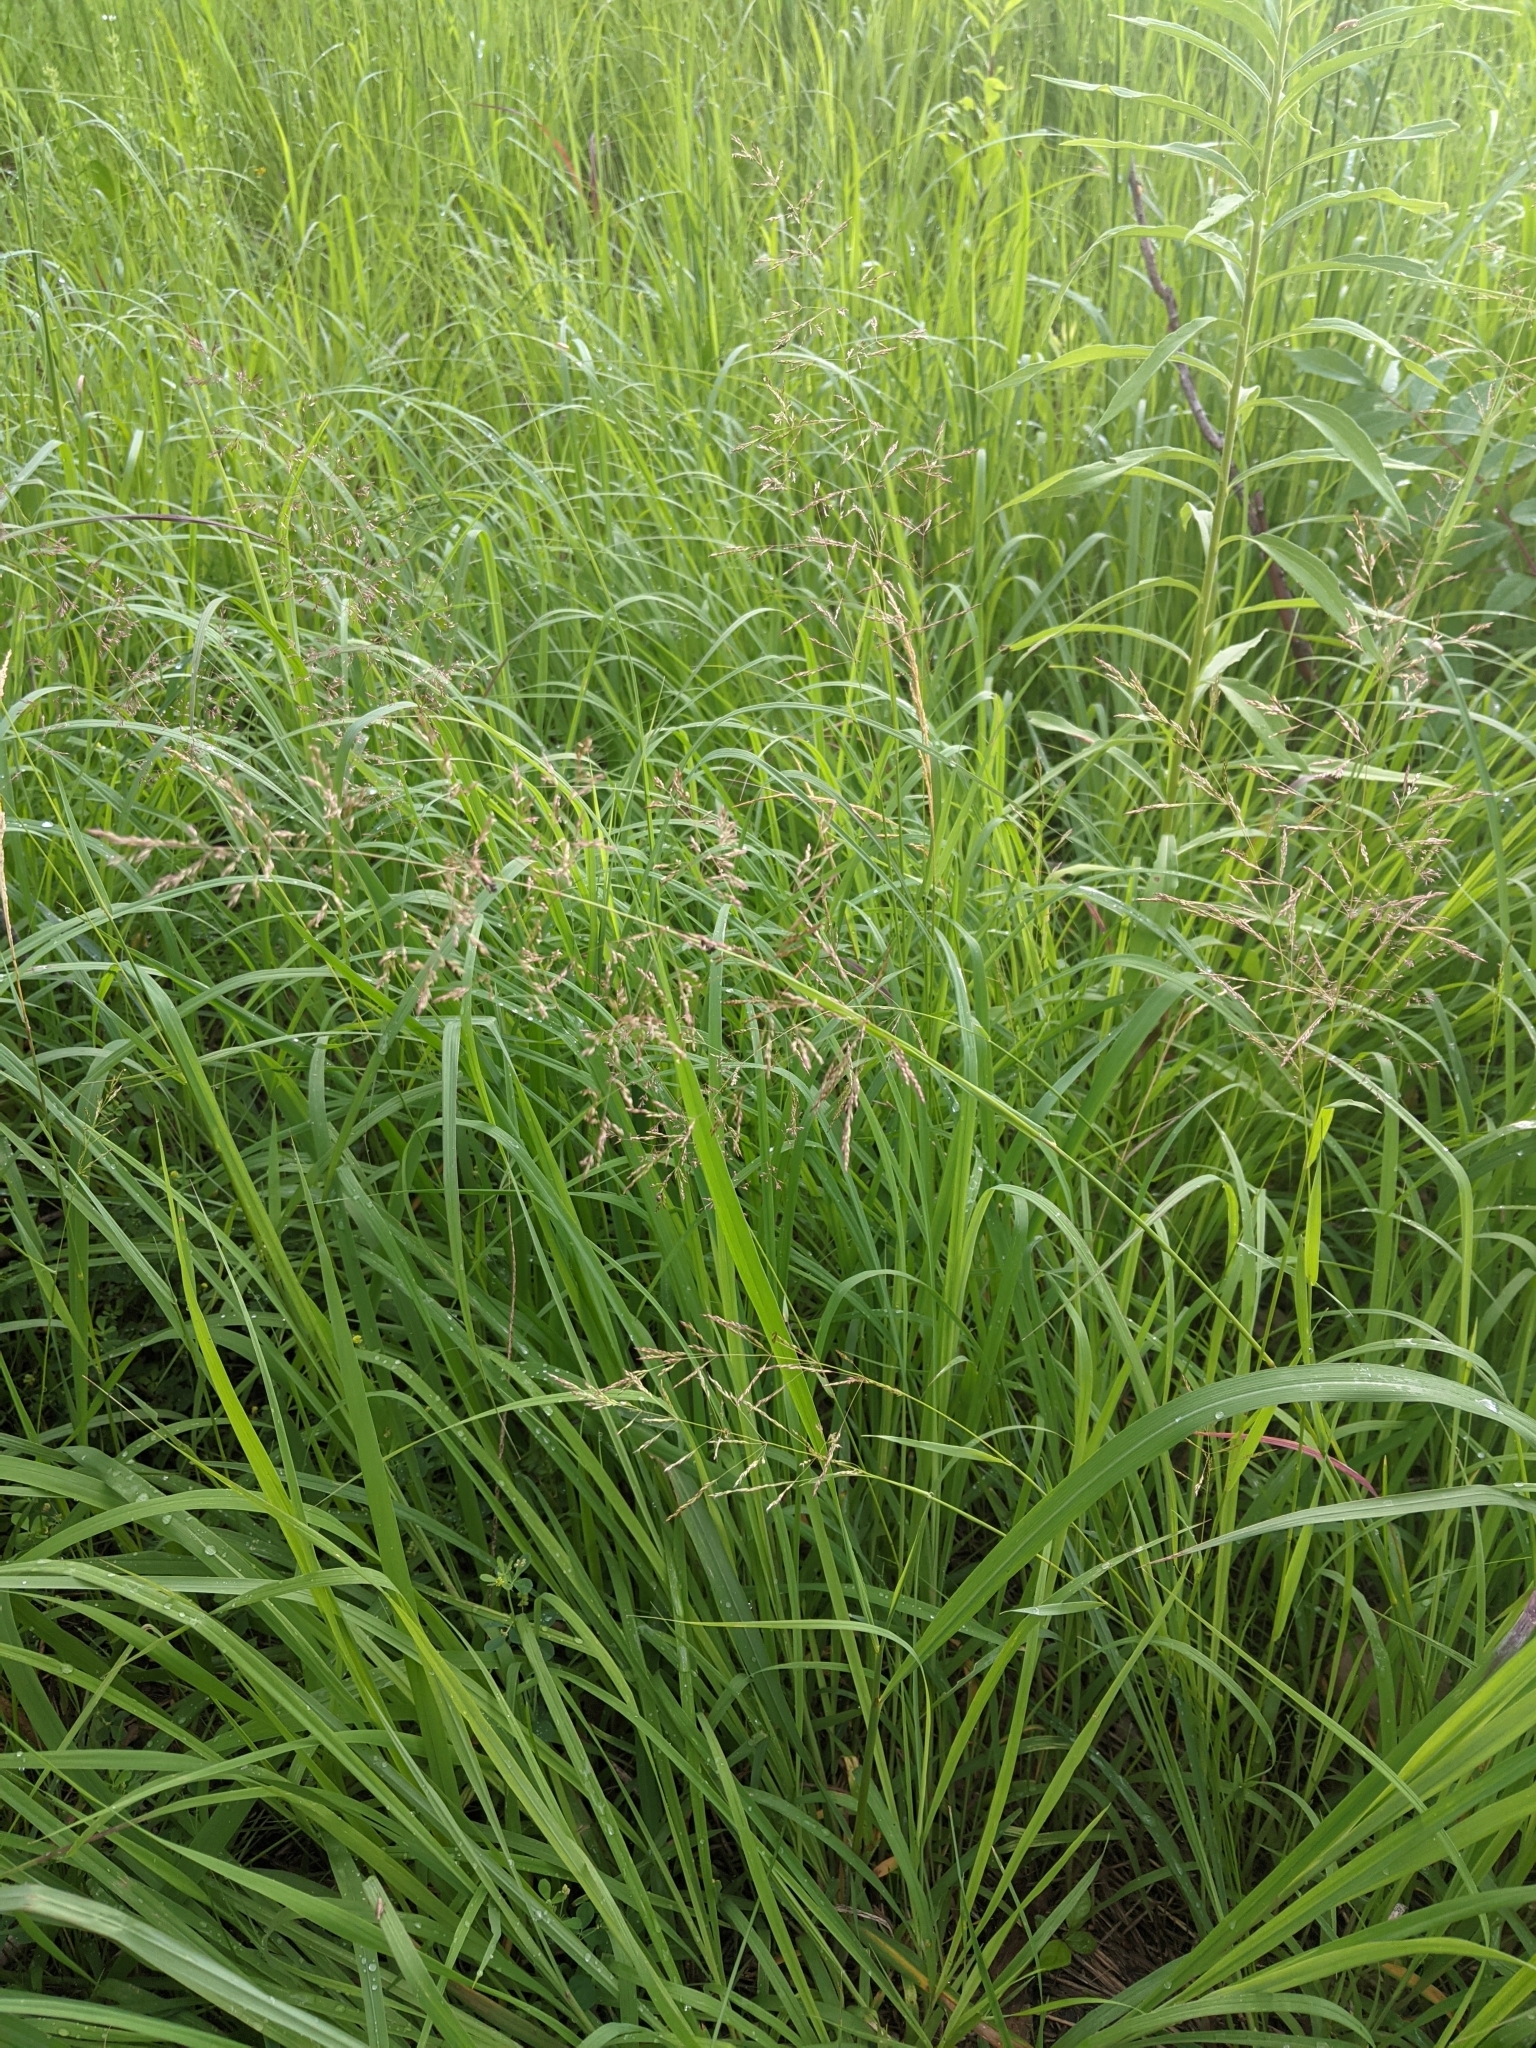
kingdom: Plantae
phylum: Tracheophyta
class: Liliopsida
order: Poales
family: Poaceae
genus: Panicum
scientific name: Panicum virgatum
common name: Switchgrass
